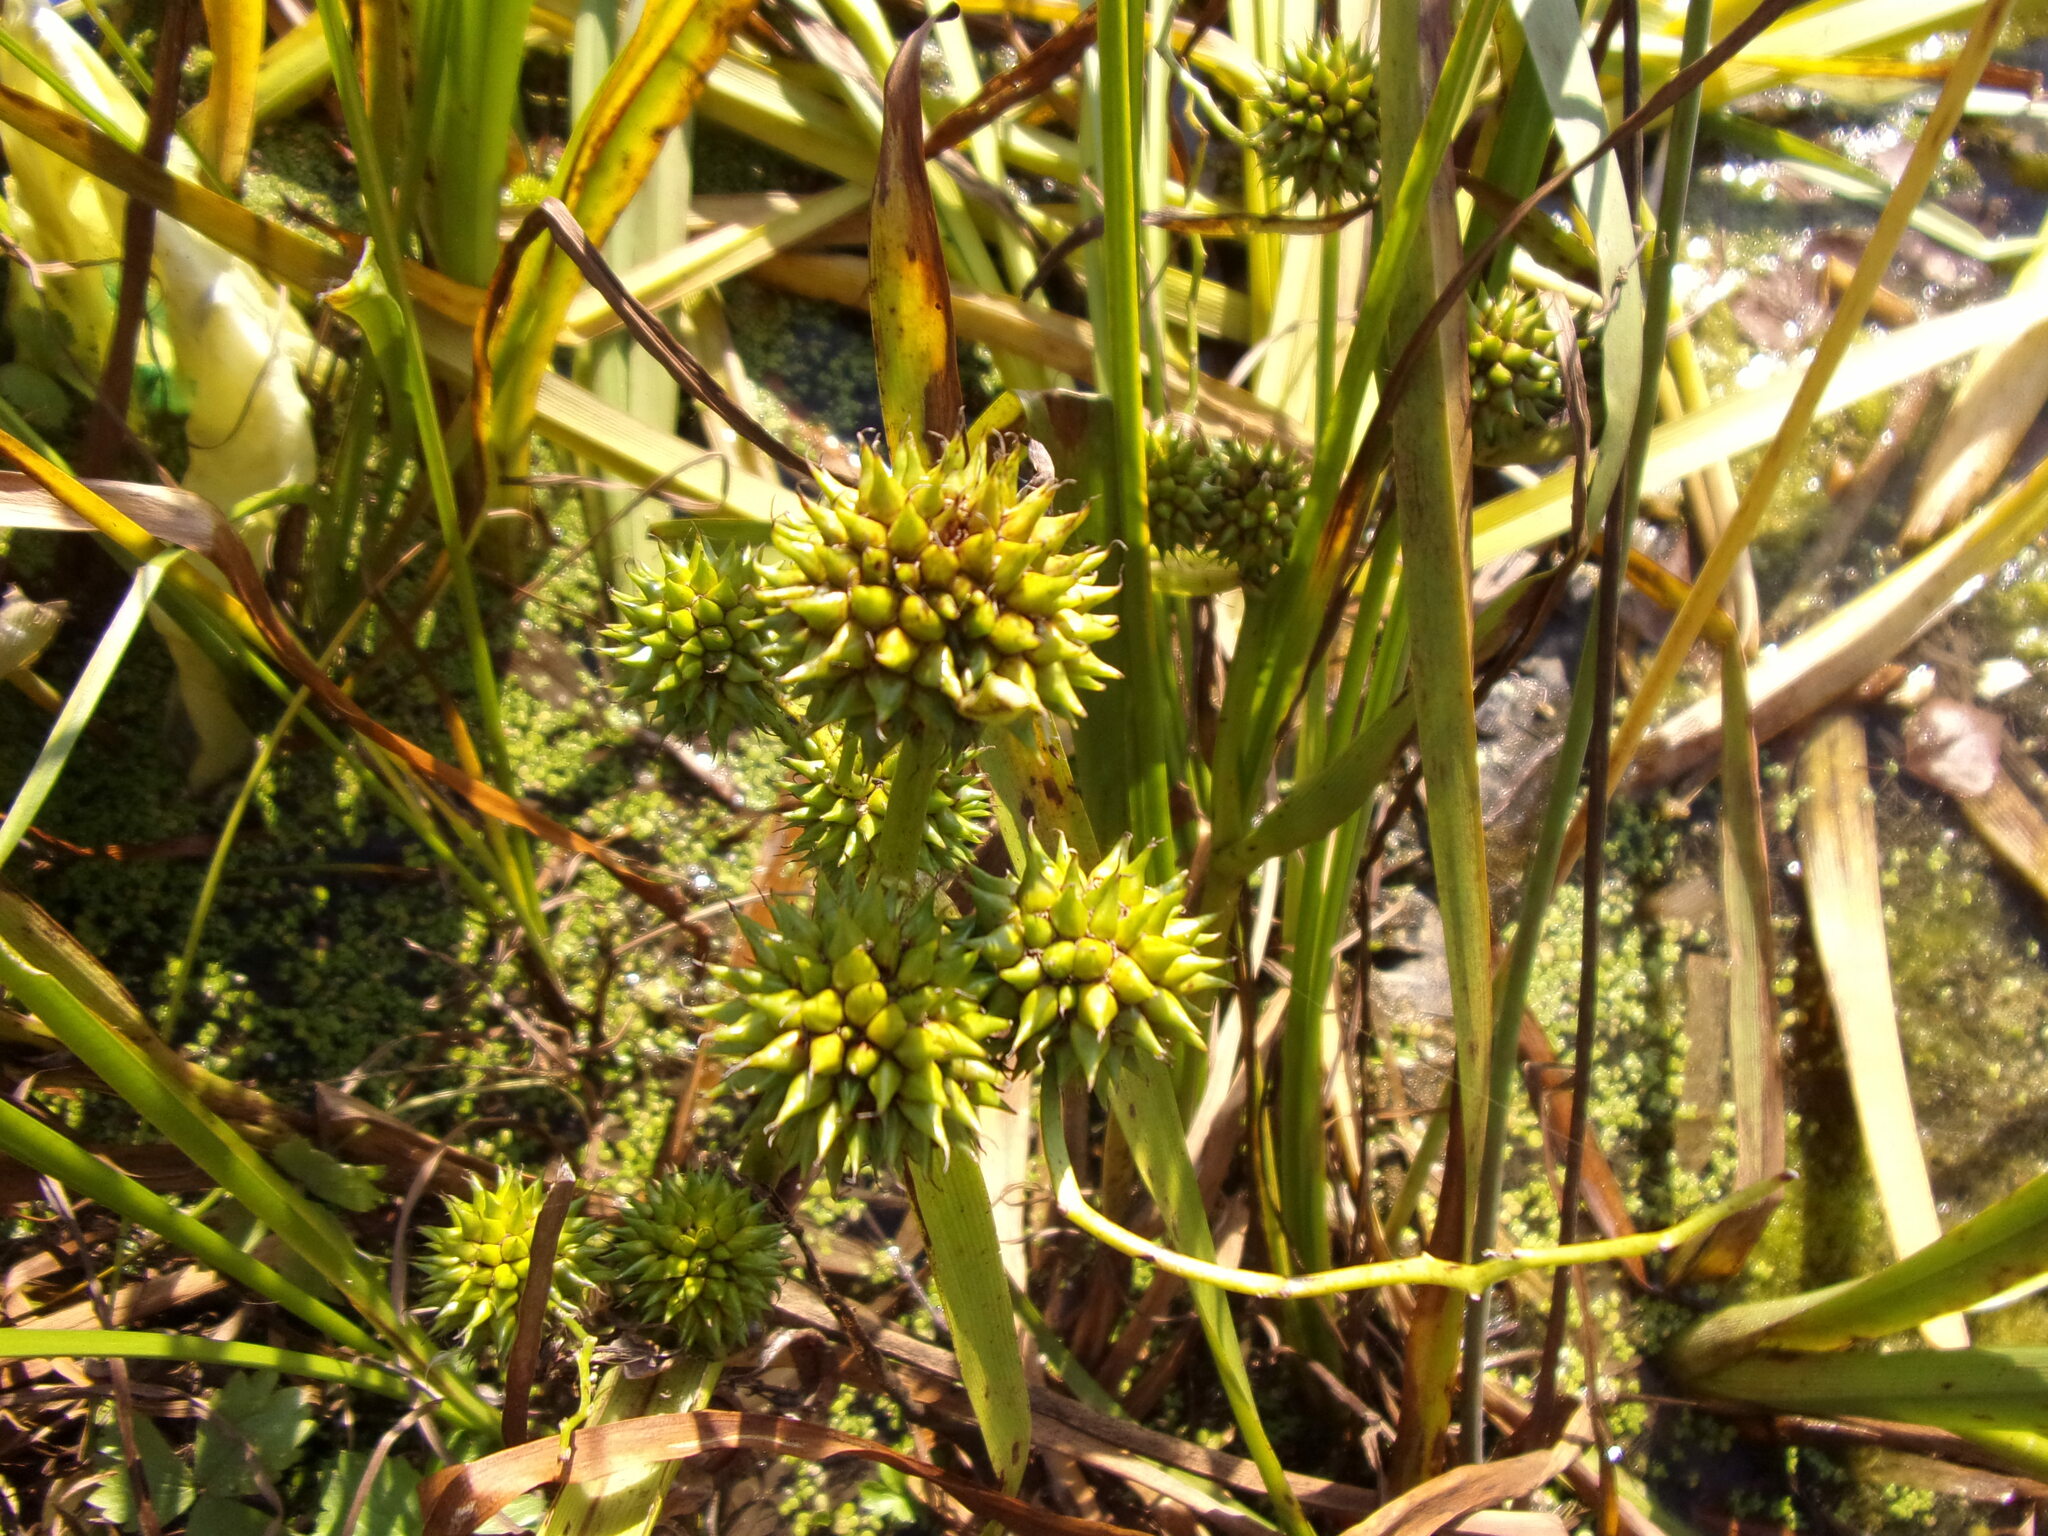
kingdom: Plantae
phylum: Tracheophyta
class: Liliopsida
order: Poales
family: Typhaceae
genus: Sparganium
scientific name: Sparganium erectum
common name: Branched bur-reed
